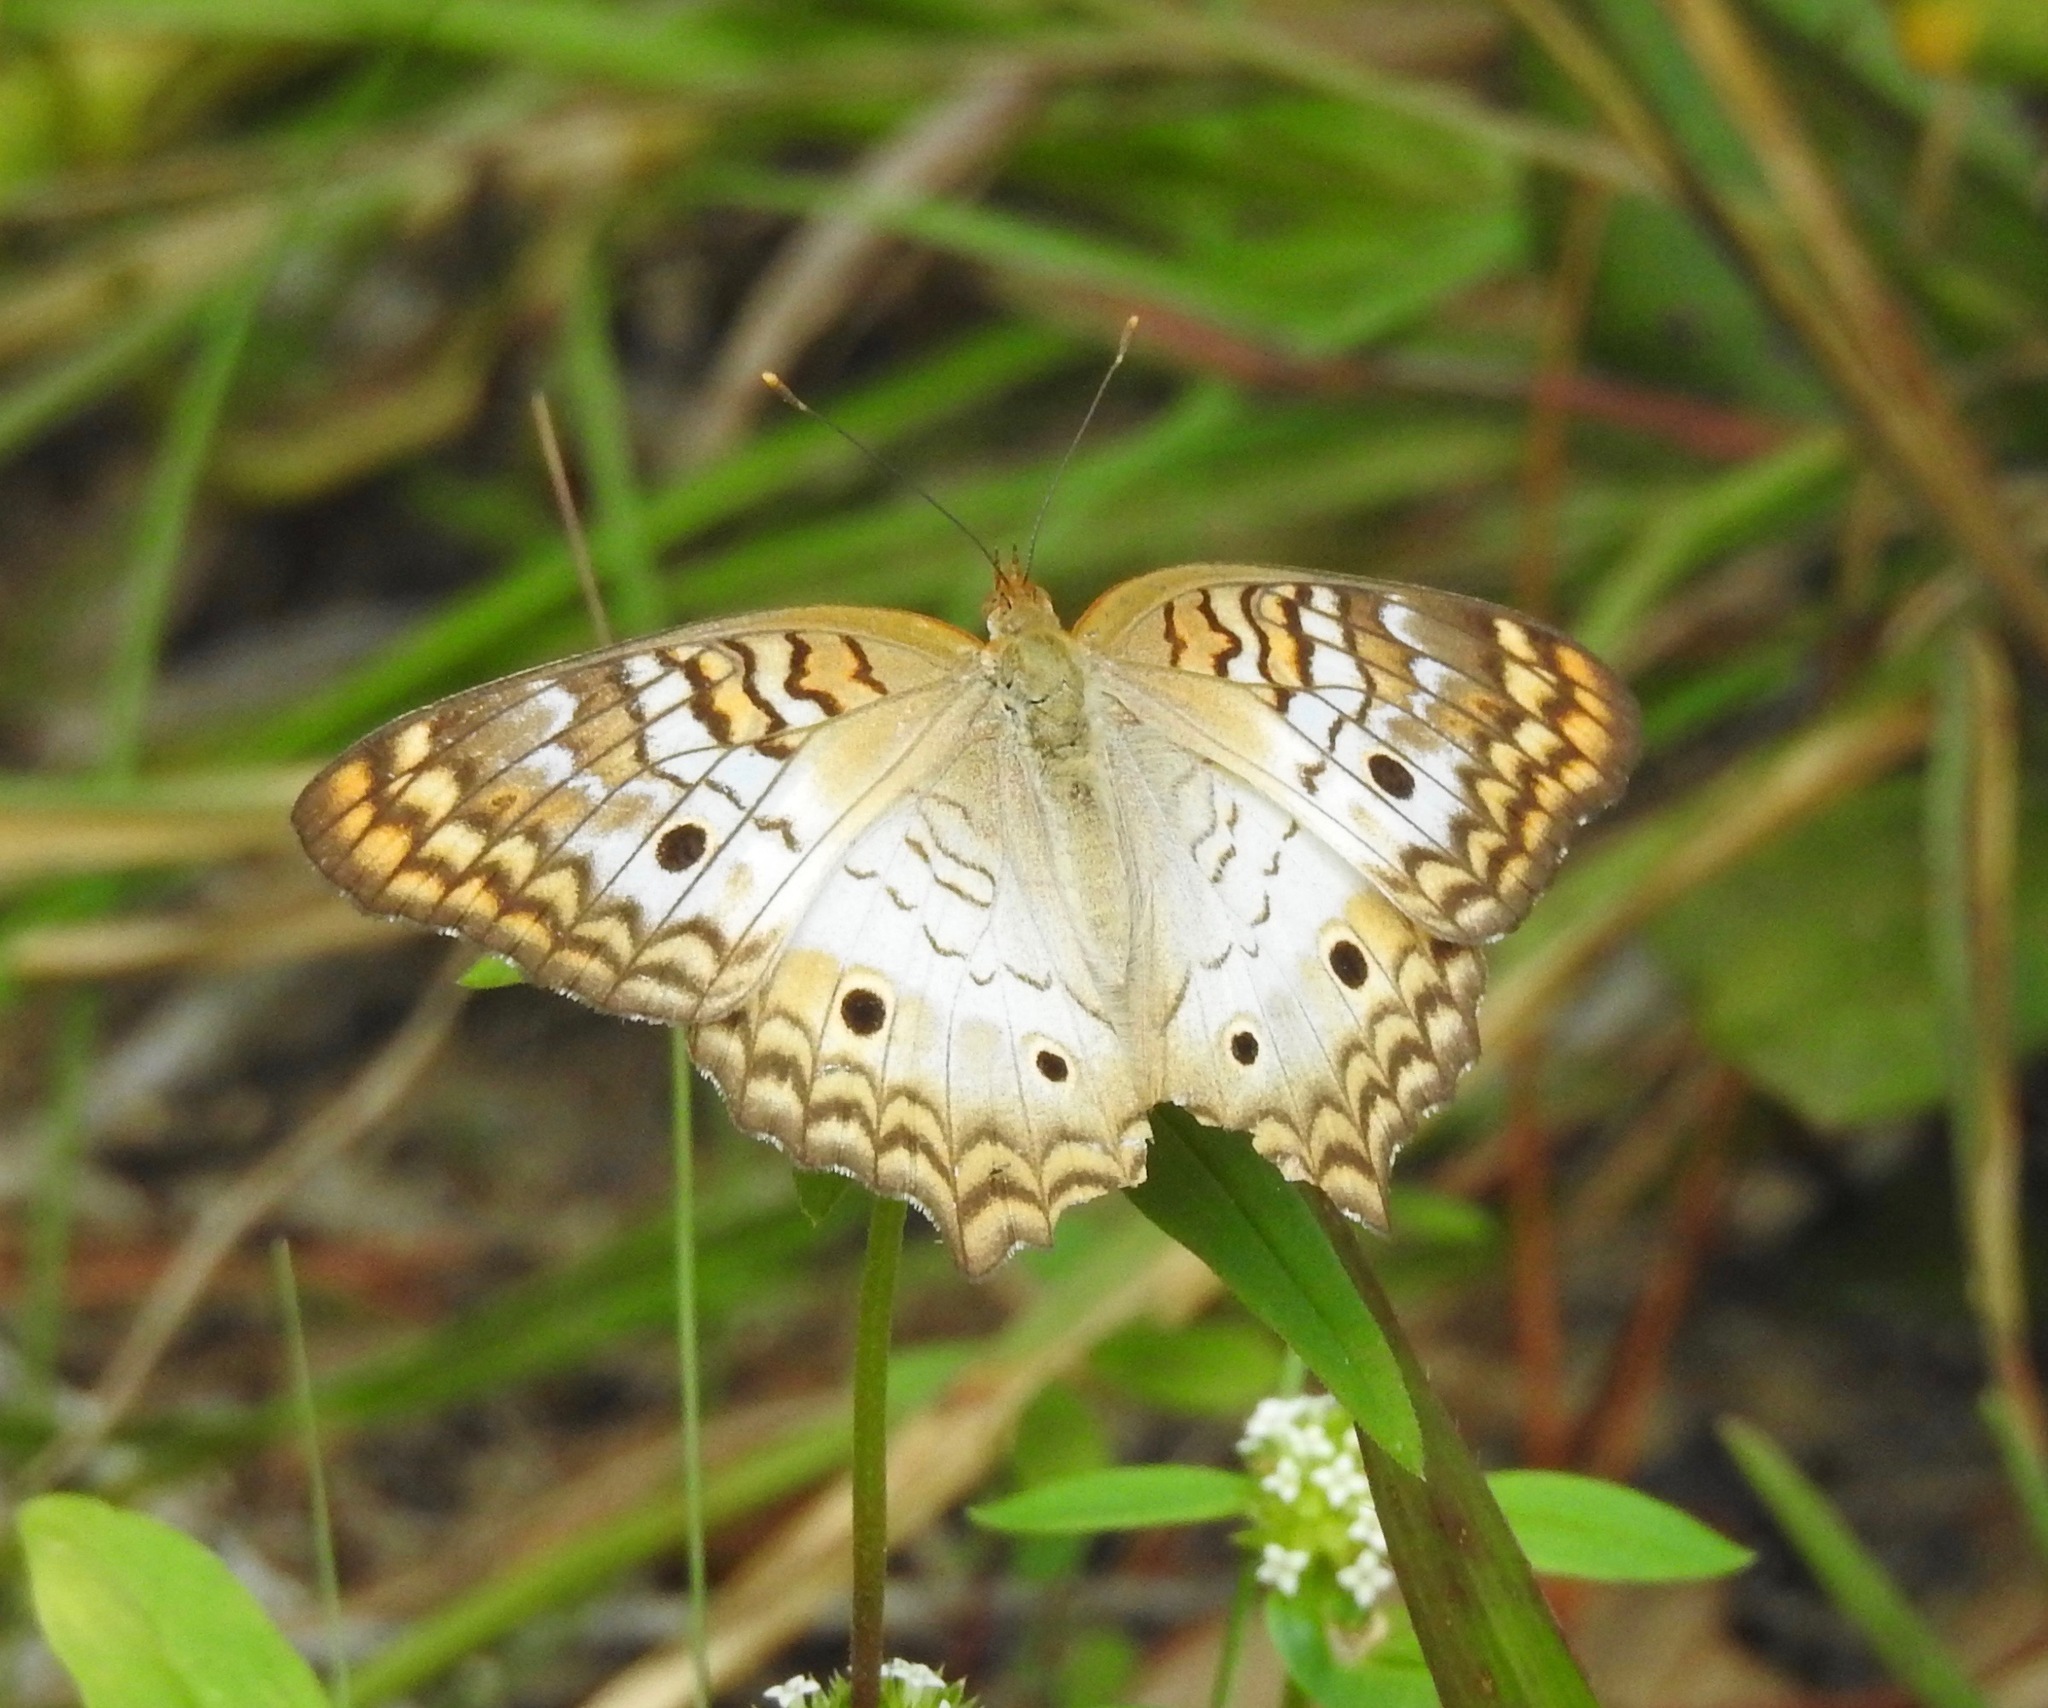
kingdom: Animalia
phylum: Arthropoda
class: Insecta
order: Lepidoptera
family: Nymphalidae
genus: Anartia
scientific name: Anartia jatrophae
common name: White peacock
